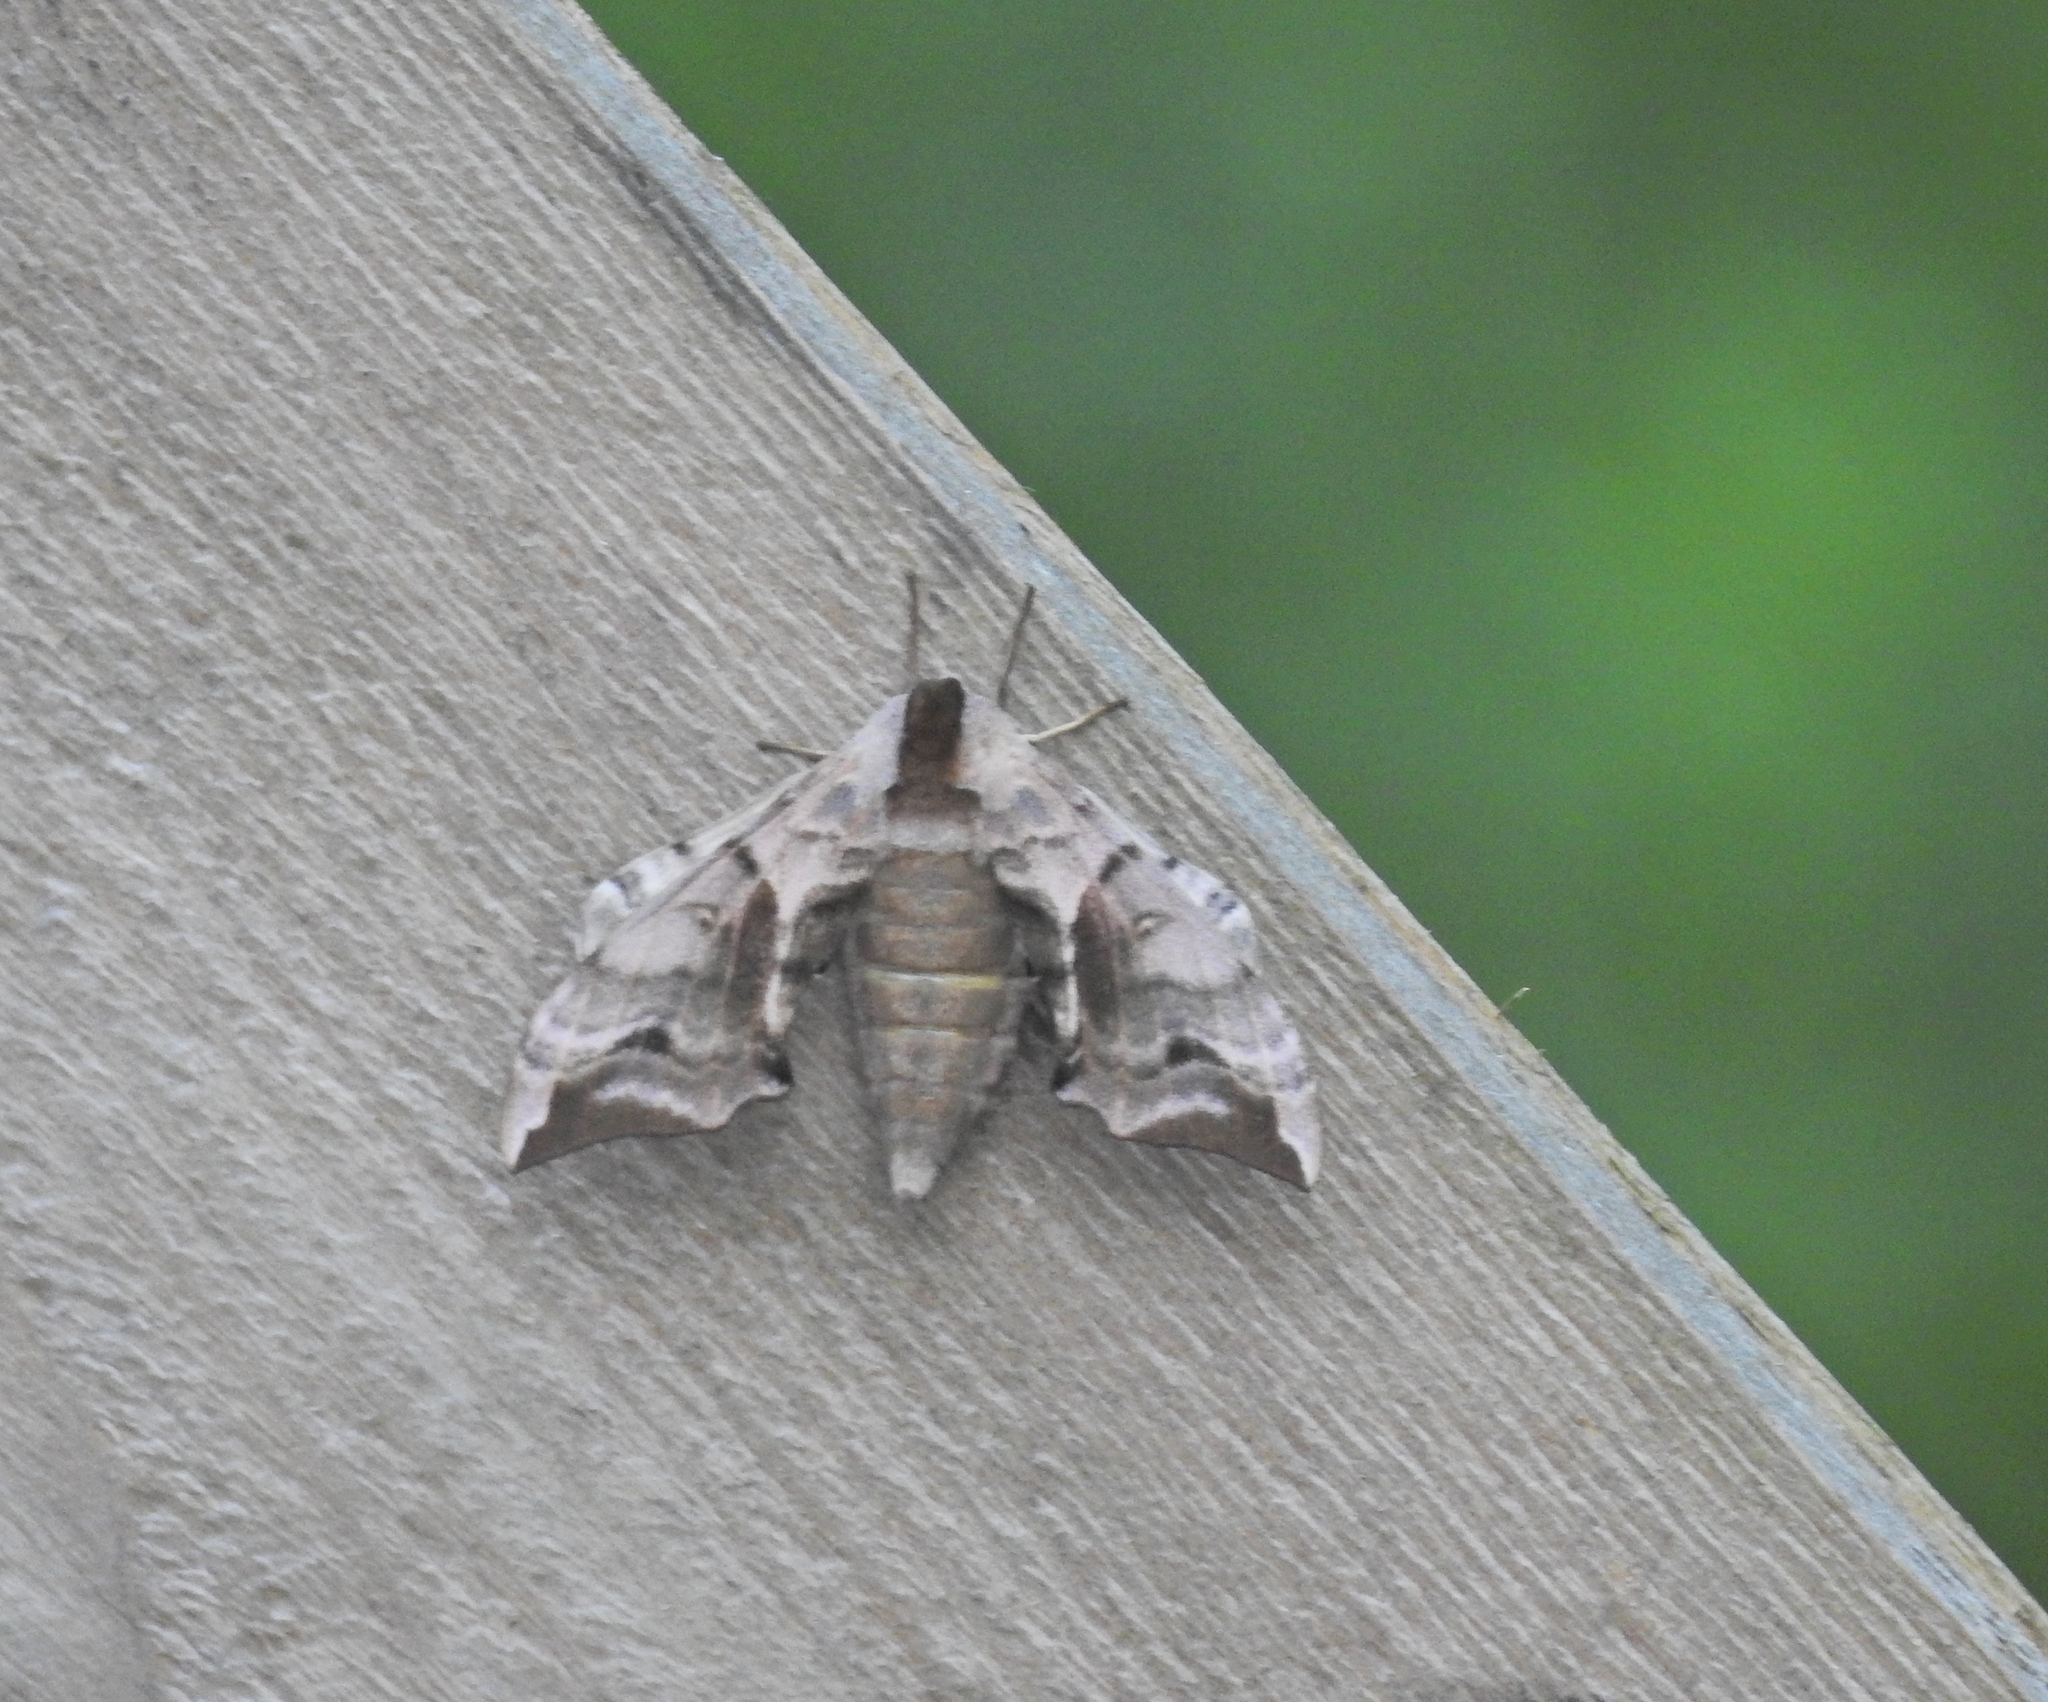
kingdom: Animalia
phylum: Arthropoda
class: Insecta
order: Lepidoptera
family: Sphingidae
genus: Smerinthus
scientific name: Smerinthus ocellata
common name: Eyed hawk-moth
